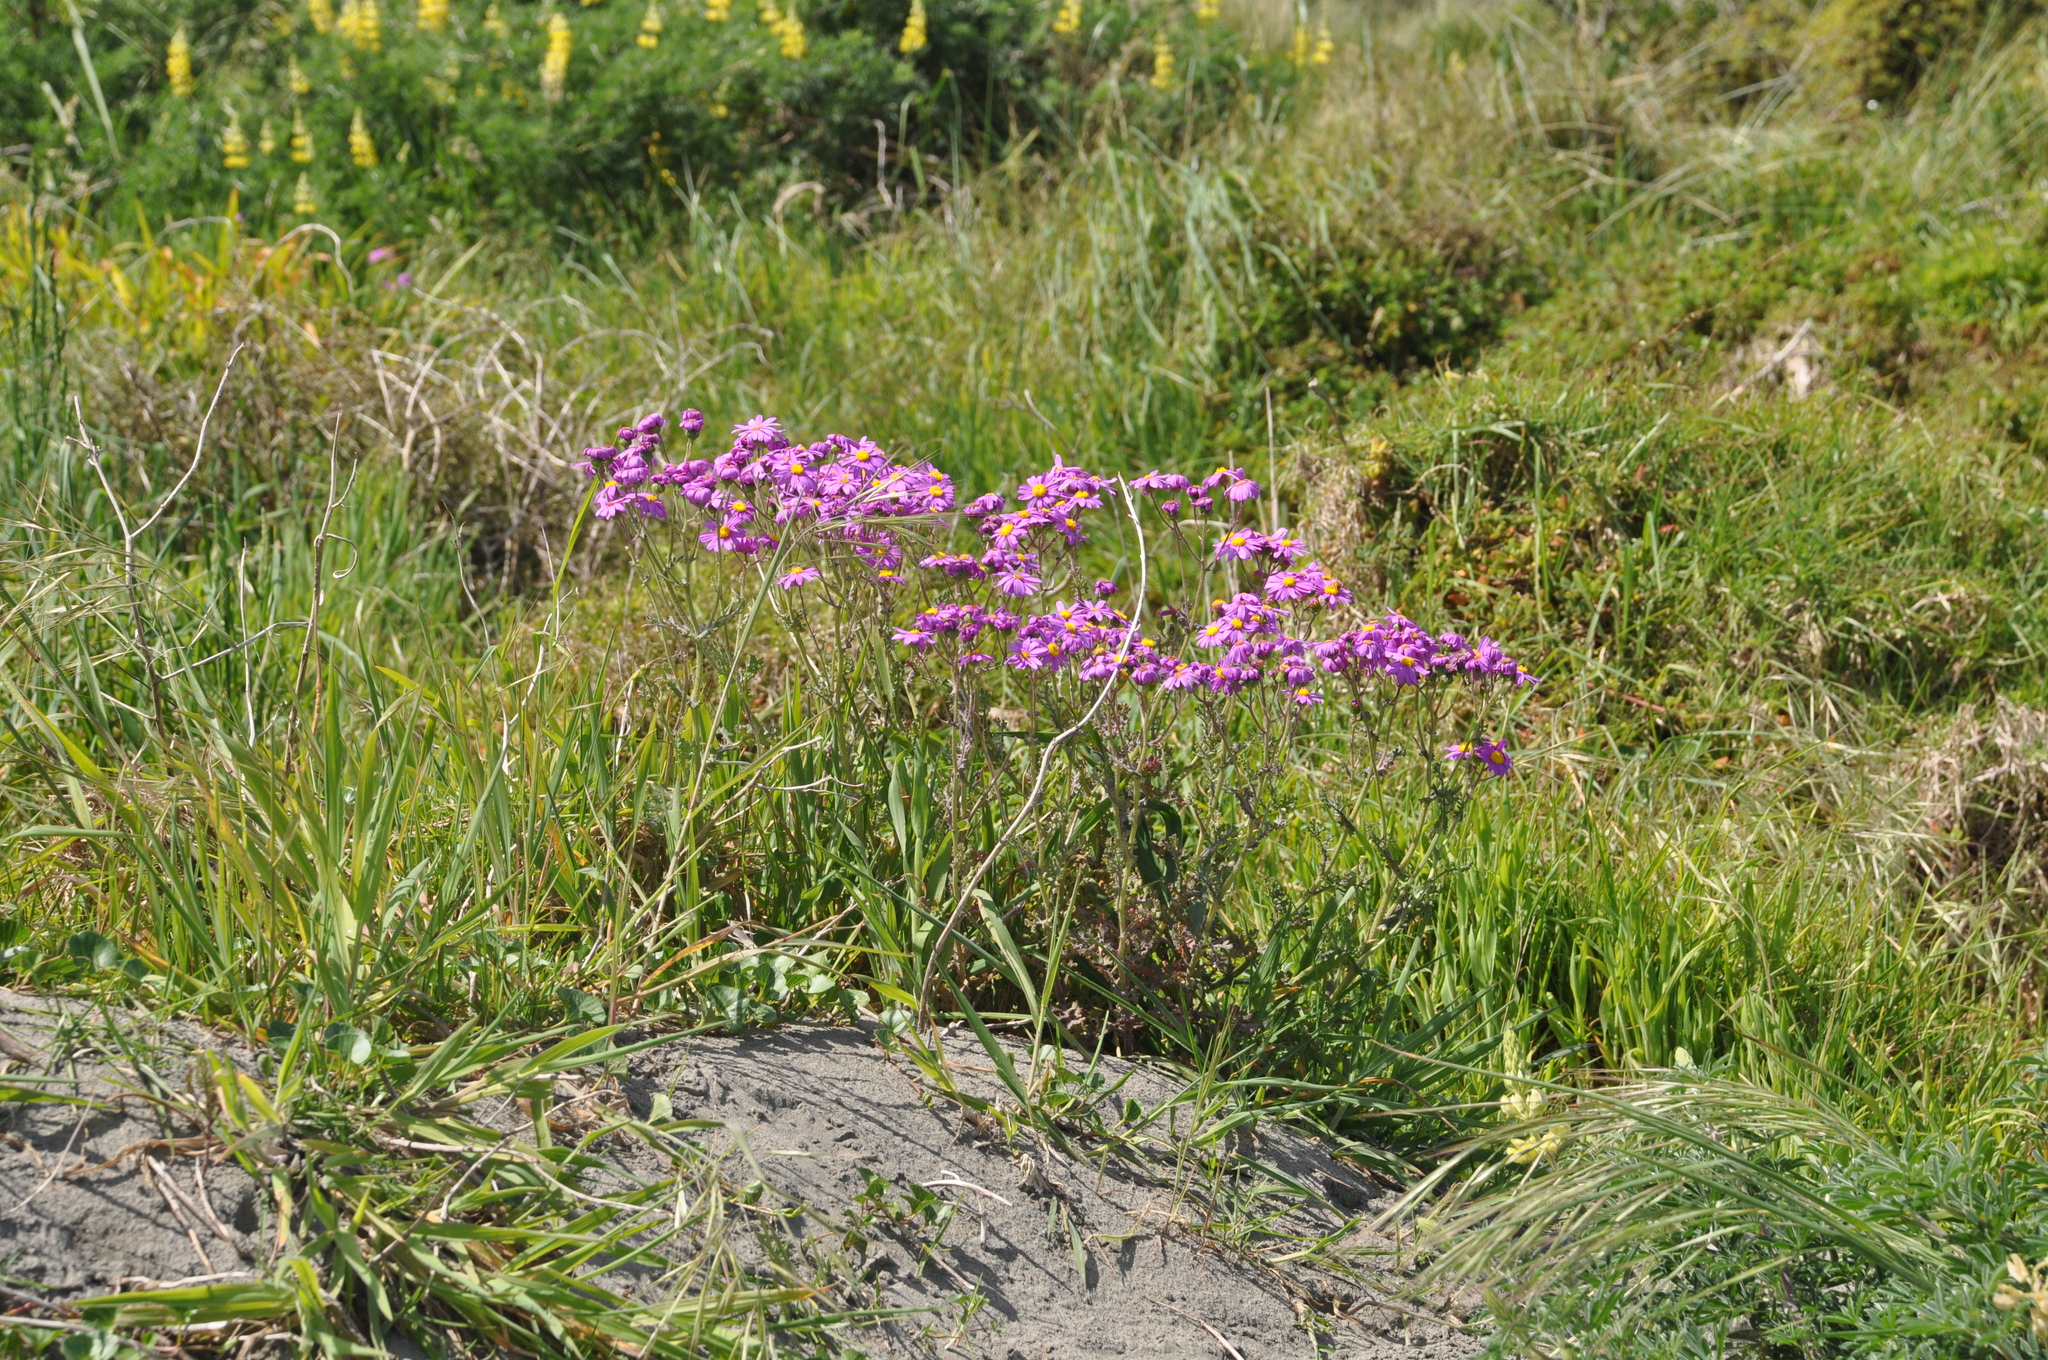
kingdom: Plantae
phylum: Tracheophyta
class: Magnoliopsida
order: Asterales
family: Asteraceae
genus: Senecio
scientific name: Senecio elegans
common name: Purple groundsel
